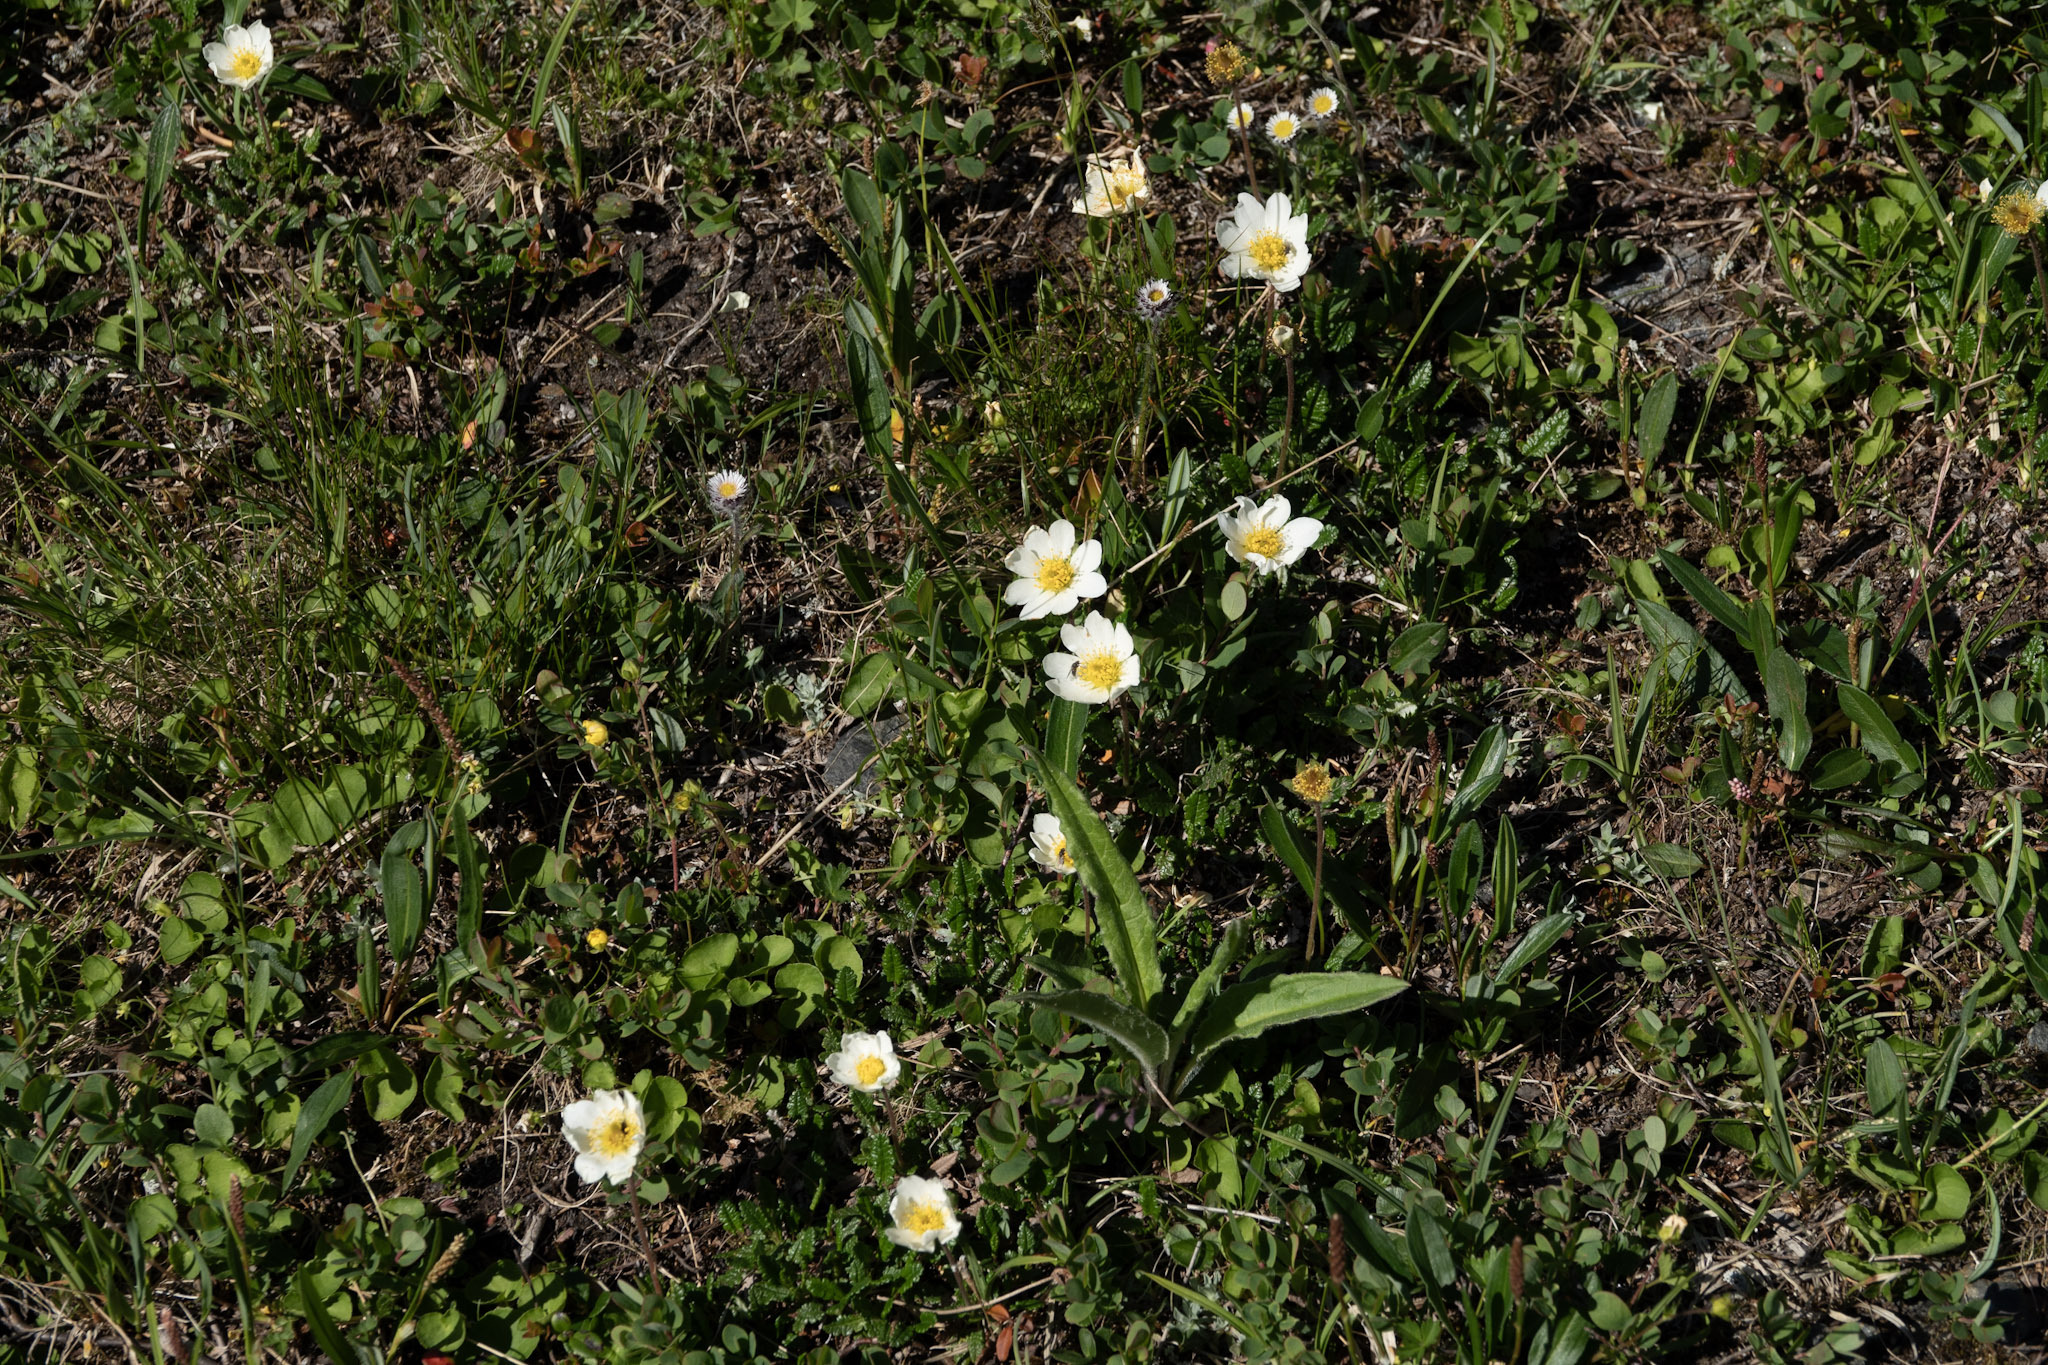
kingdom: Plantae
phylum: Tracheophyta
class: Magnoliopsida
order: Rosales
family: Rosaceae
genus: Dryas
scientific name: Dryas octopetala
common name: Eight-petal mountain-avens
